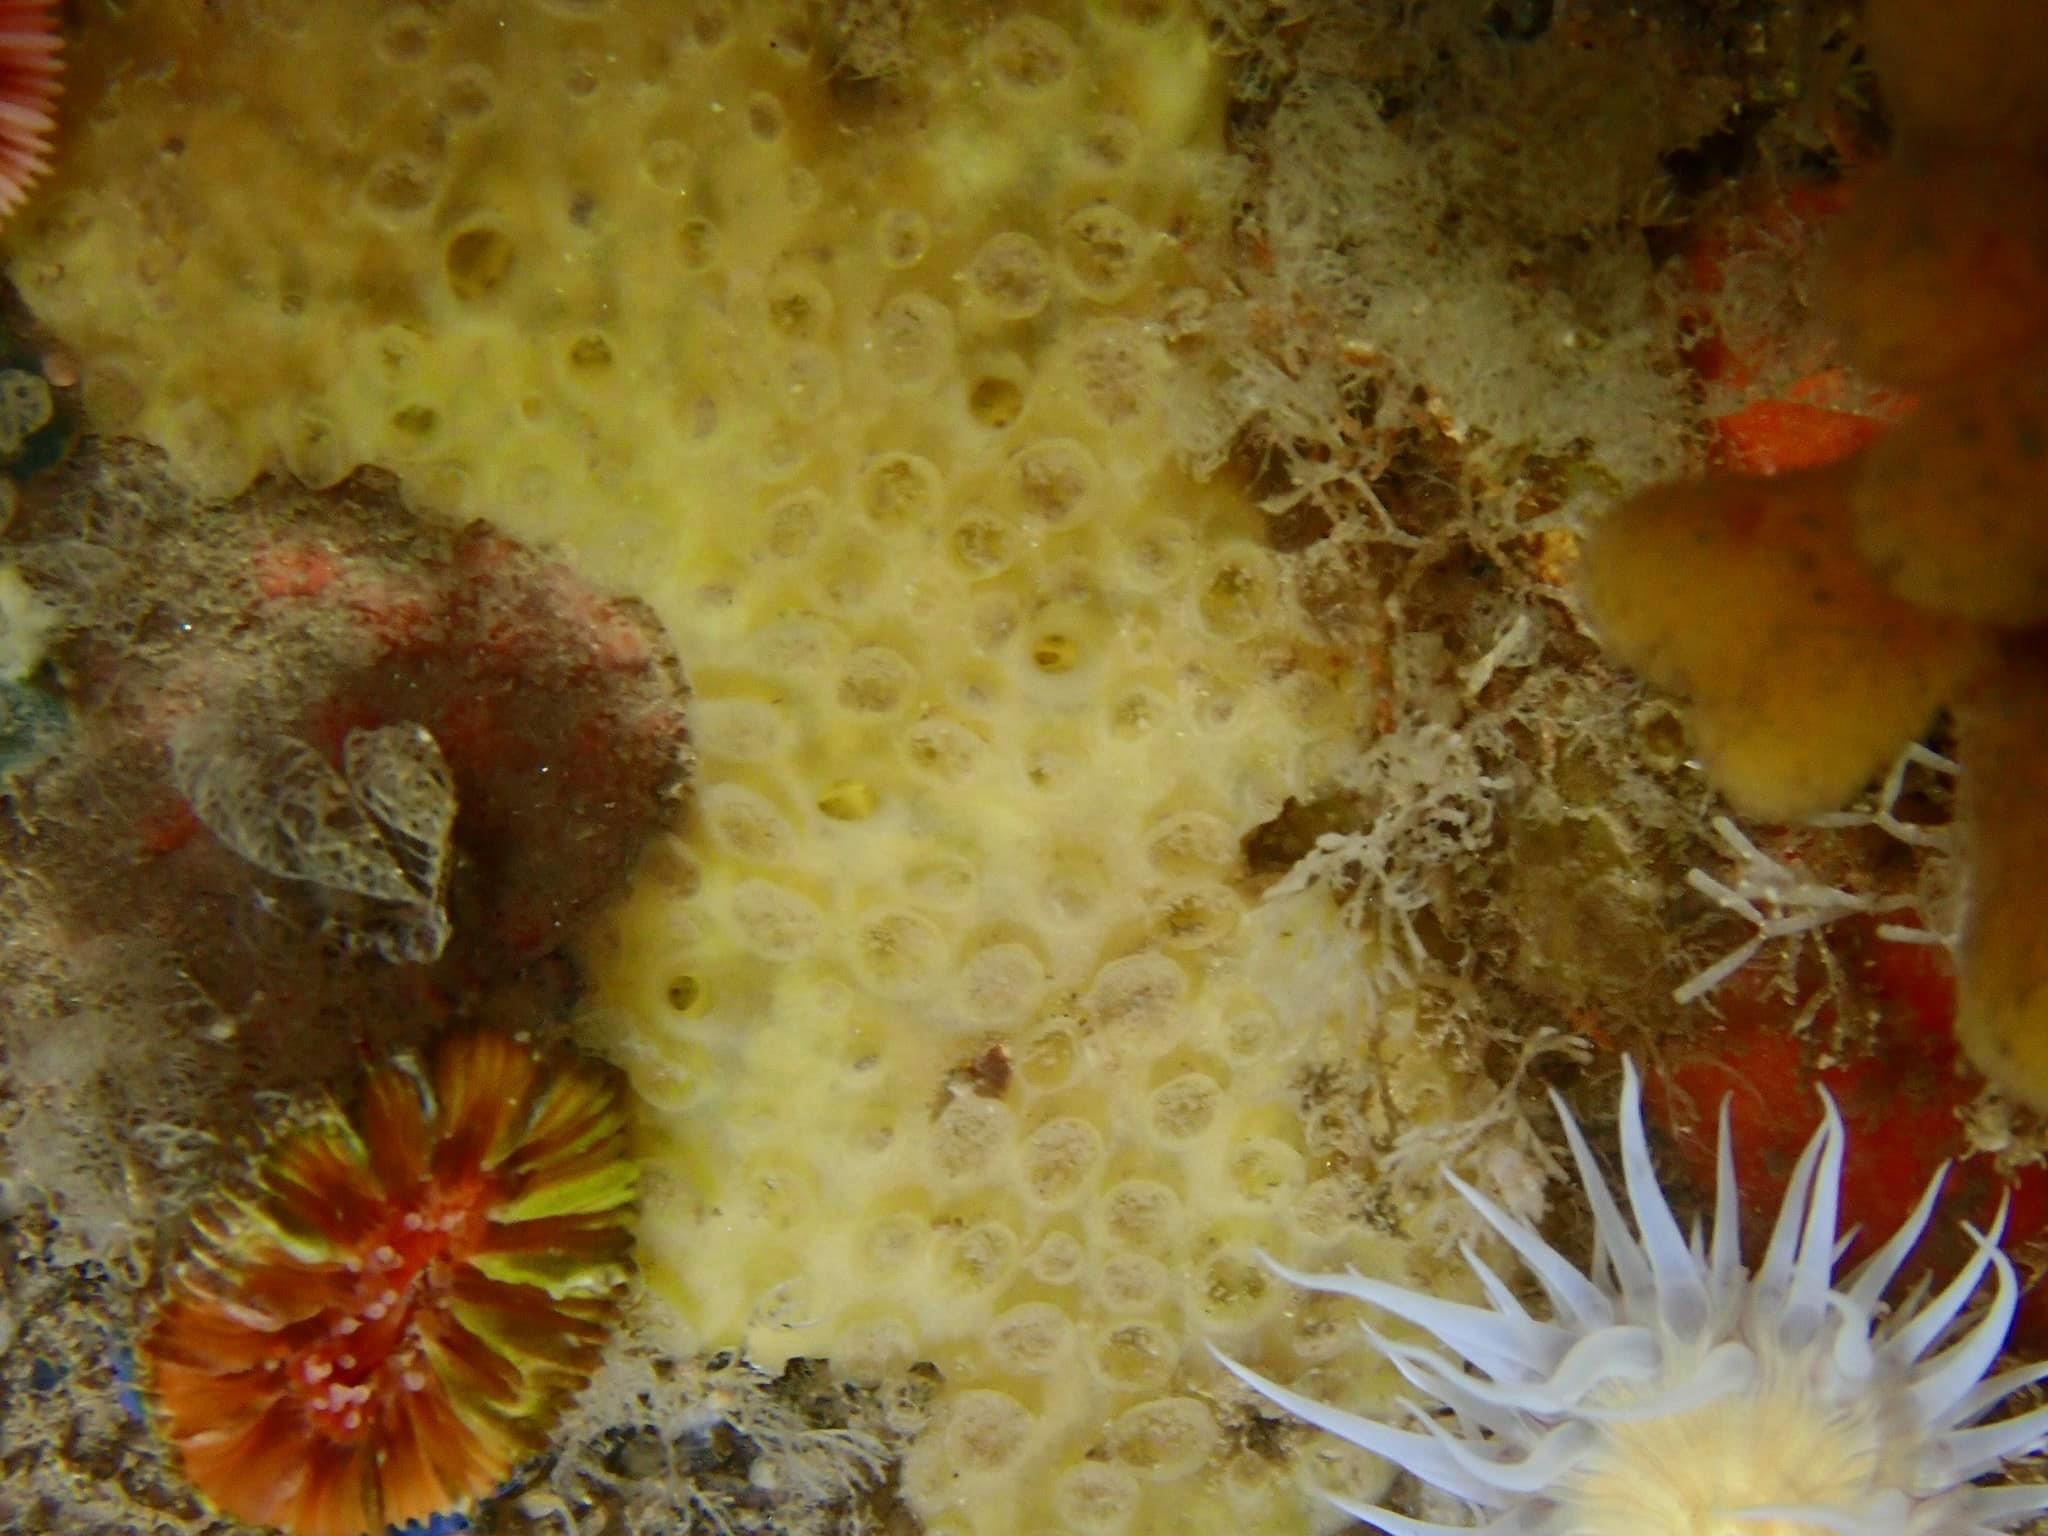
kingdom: Animalia
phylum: Porifera
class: Demospongiae
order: Poecilosclerida
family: Coelosphaeridae
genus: Lissodendoryx
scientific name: Lissodendoryx jenjonesae
